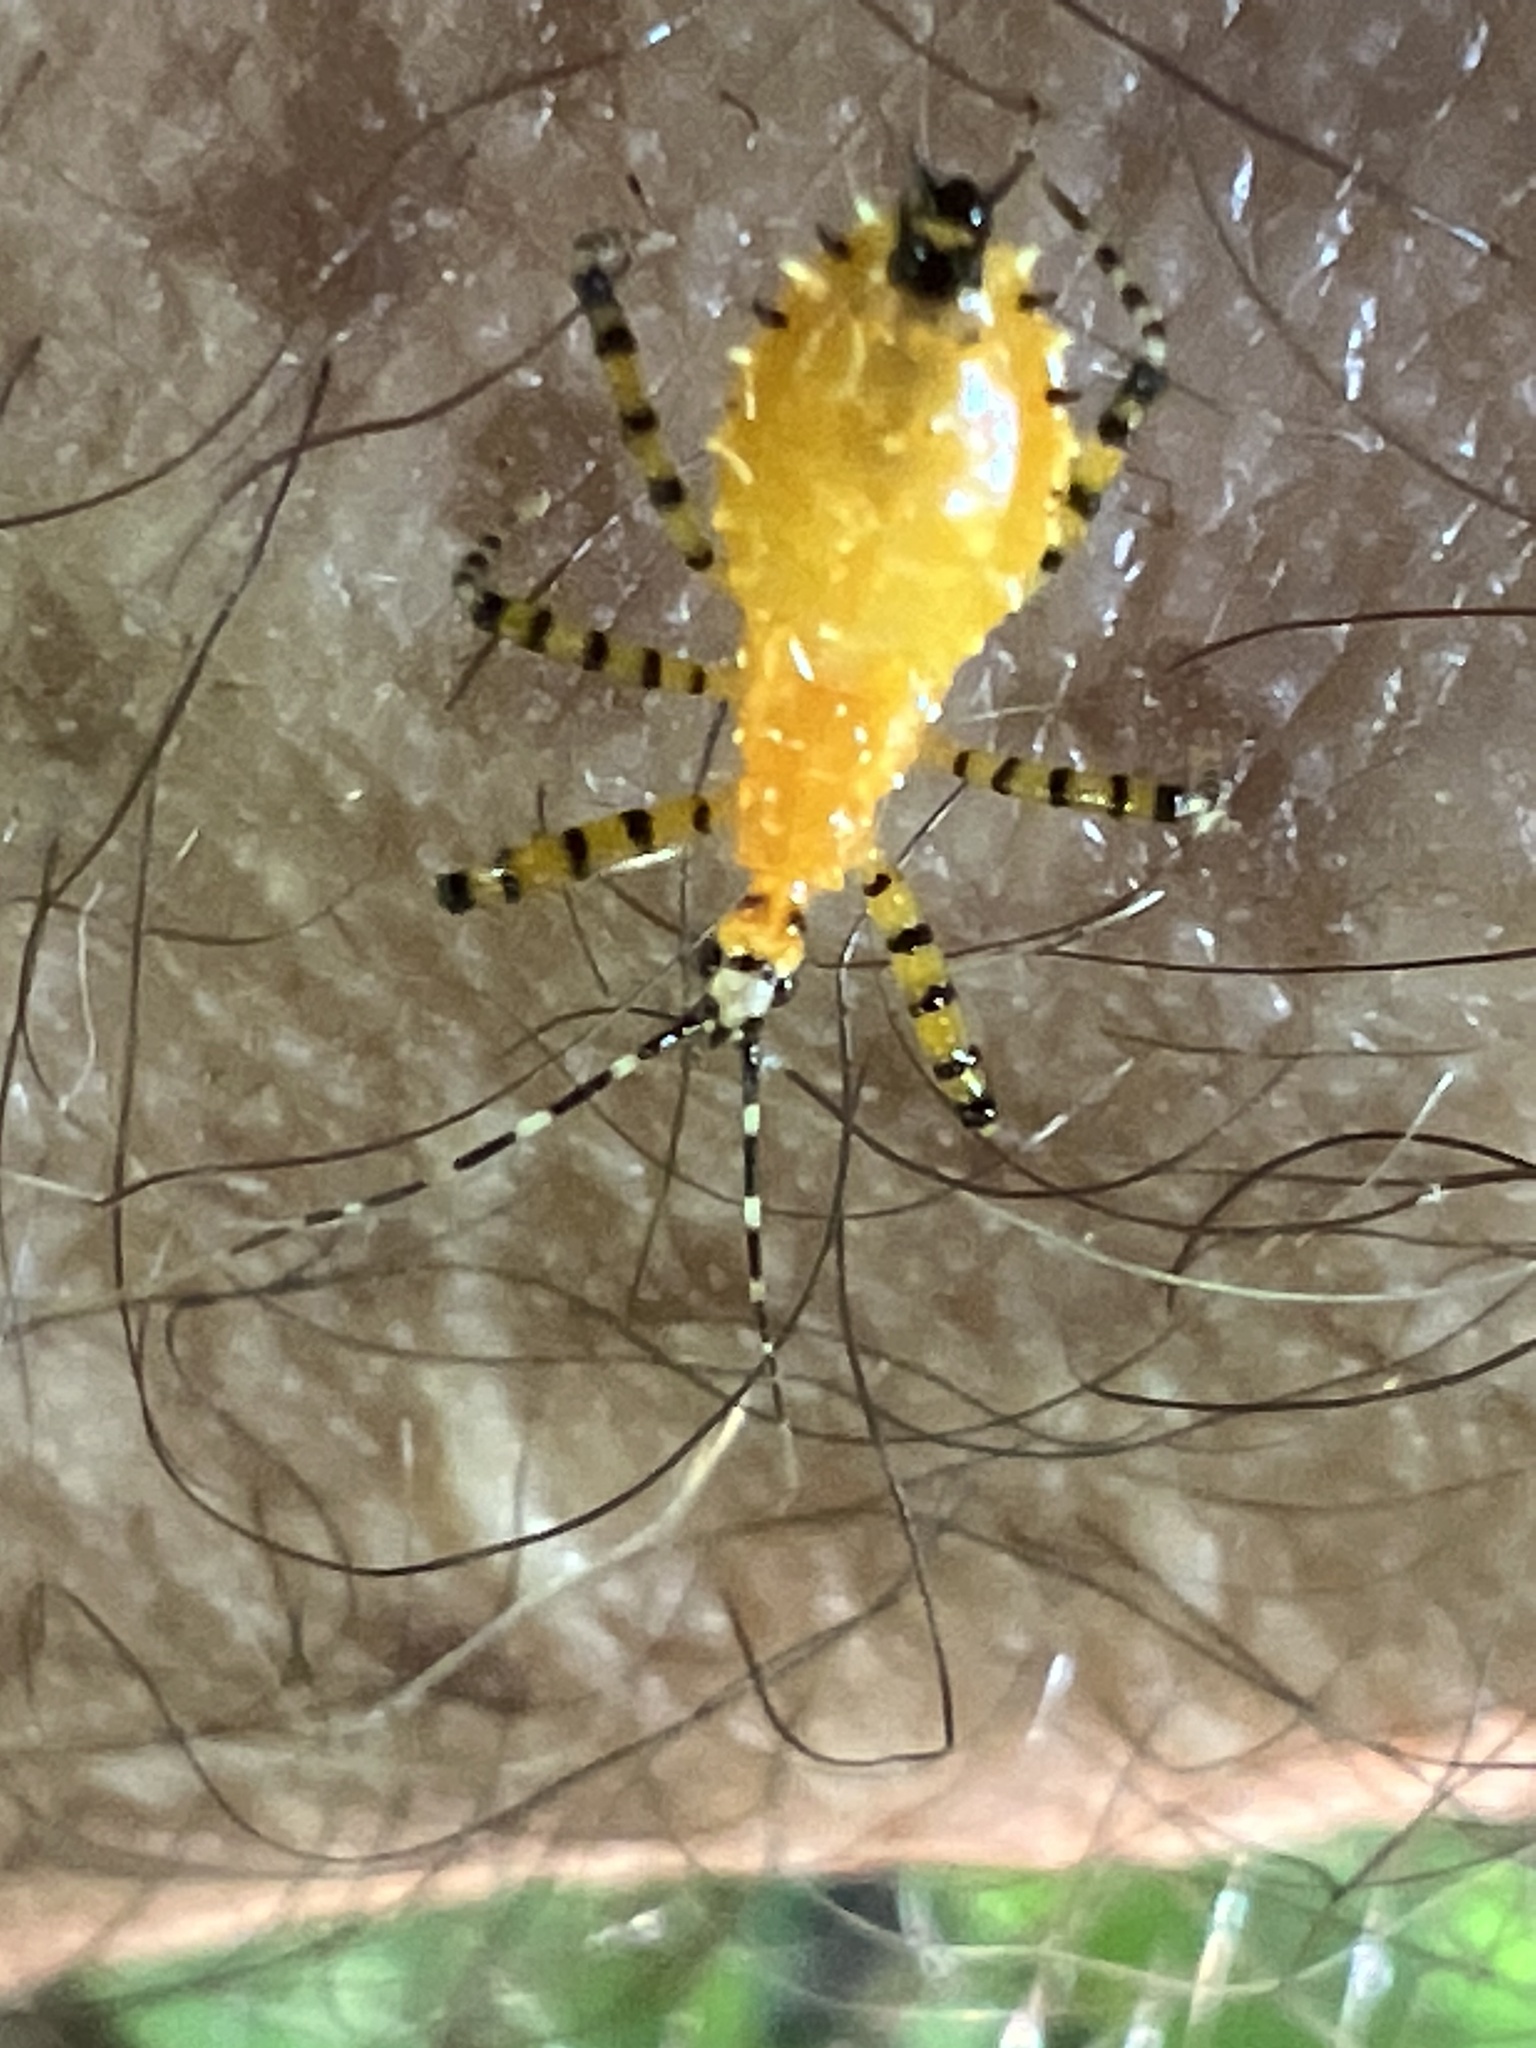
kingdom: Animalia
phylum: Arthropoda
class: Insecta
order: Hemiptera
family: Reduviidae
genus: Pselliopus
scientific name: Pselliopus barberi
